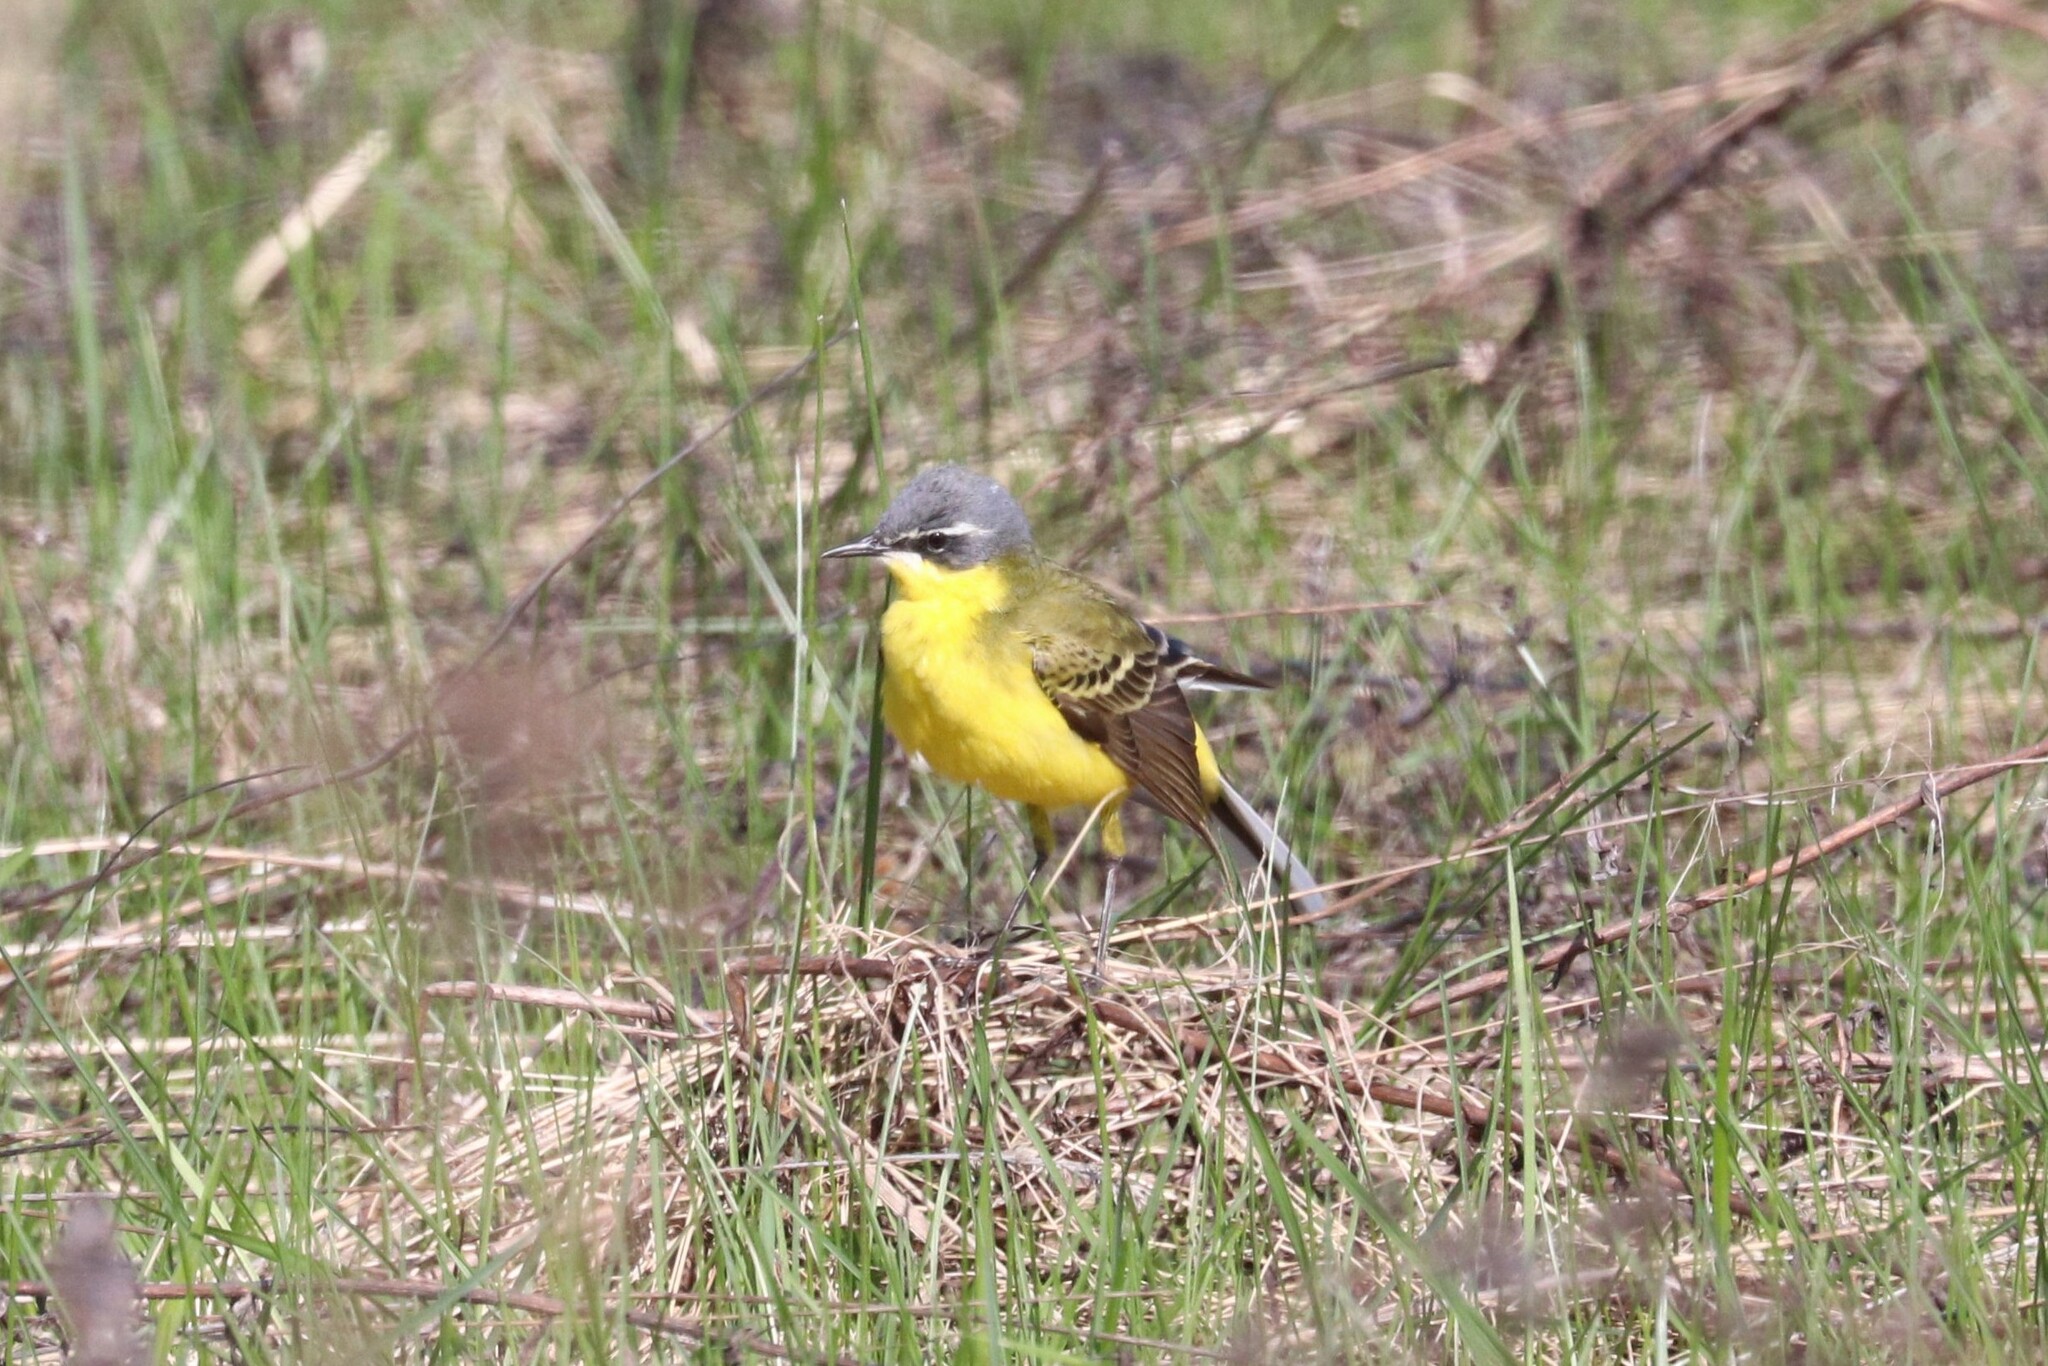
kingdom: Animalia
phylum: Chordata
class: Aves
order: Passeriformes
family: Motacillidae
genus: Motacilla
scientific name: Motacilla flava
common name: Western yellow wagtail
